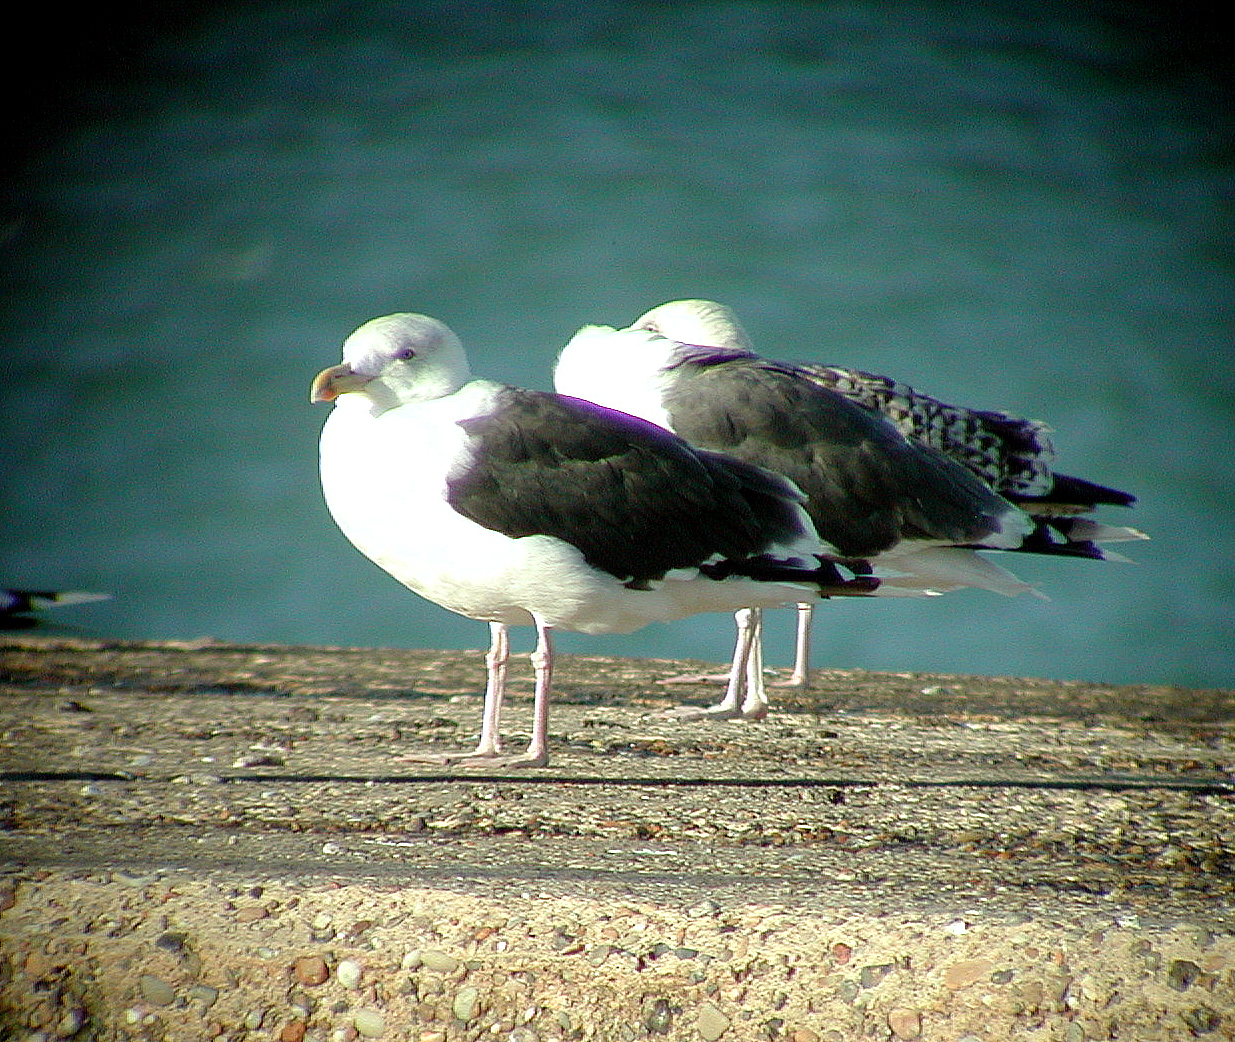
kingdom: Animalia
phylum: Chordata
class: Aves
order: Charadriiformes
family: Laridae
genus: Larus
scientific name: Larus marinus
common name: Great black-backed gull
